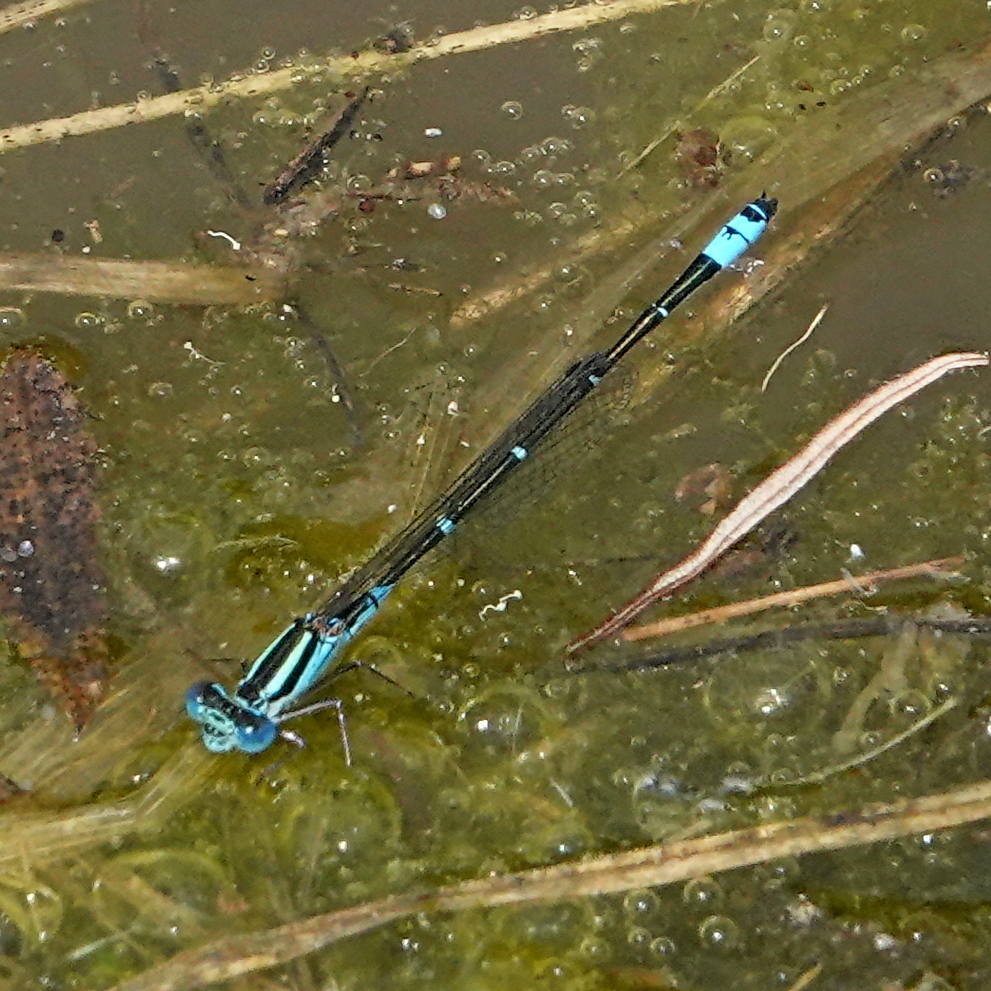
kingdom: Animalia
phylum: Arthropoda
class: Insecta
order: Odonata
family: Coenagrionidae
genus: Austroagrion
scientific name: Austroagrion watsoni
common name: Eastern billabongfly
